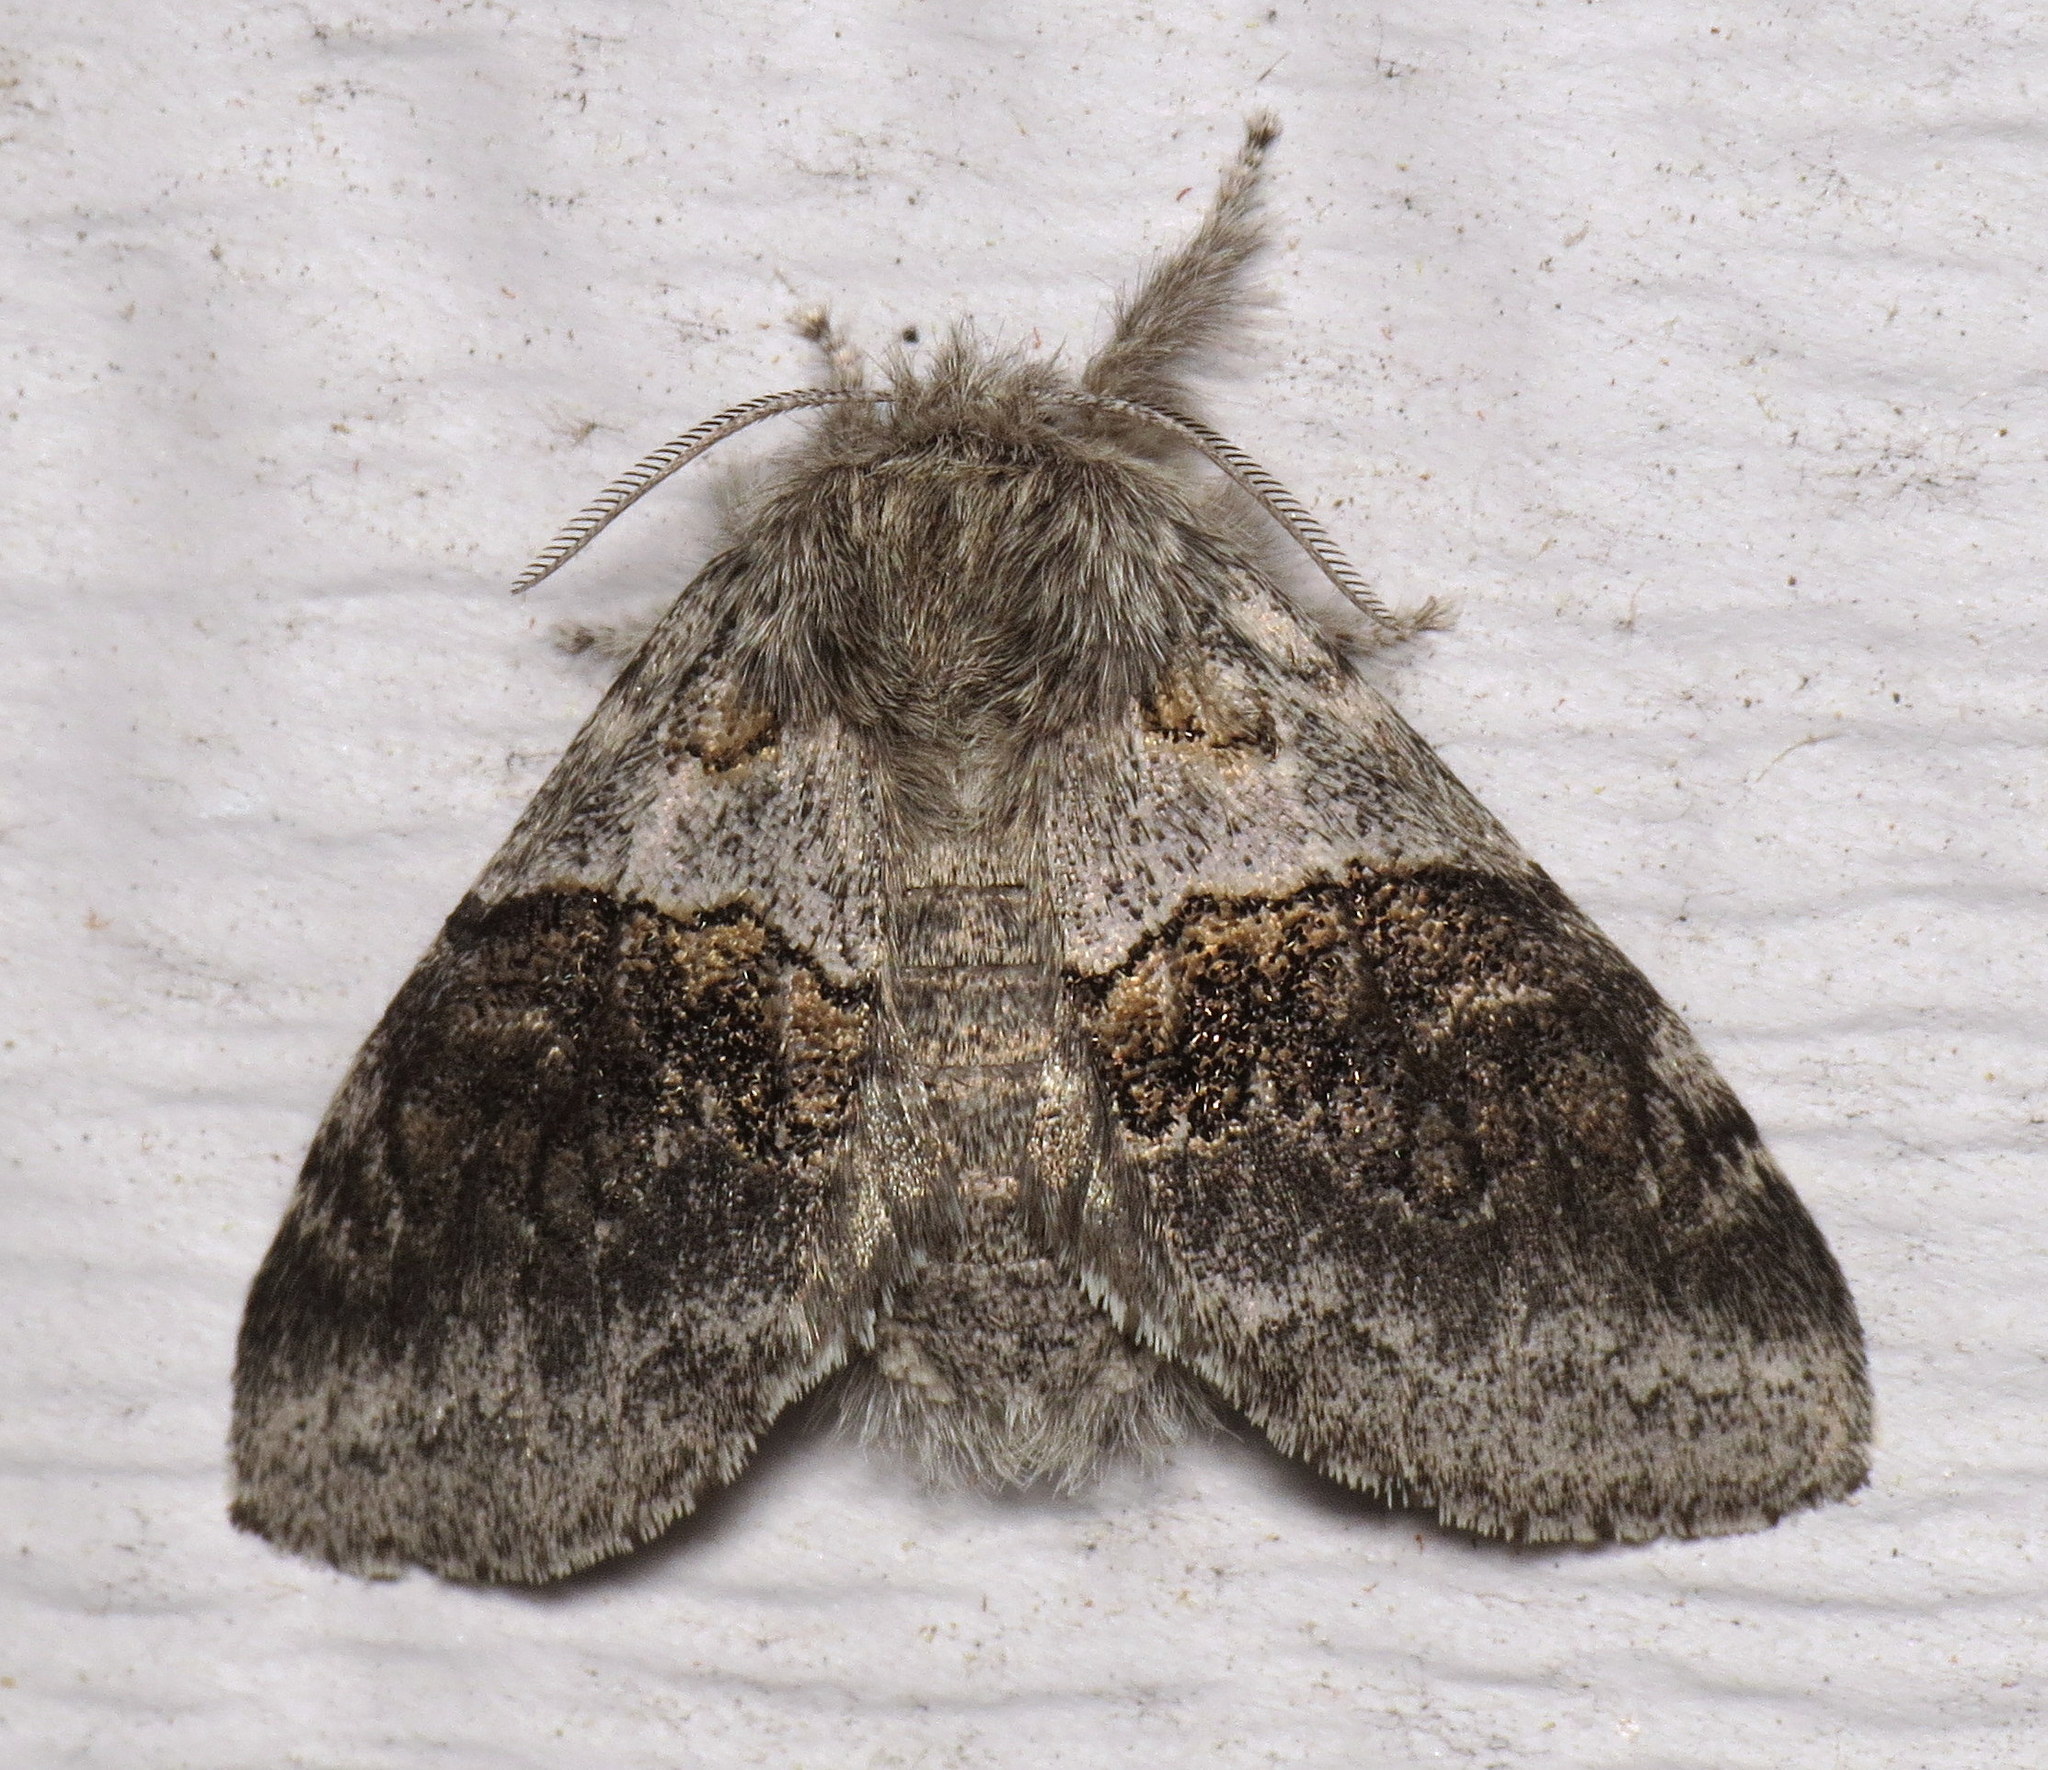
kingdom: Animalia
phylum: Arthropoda
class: Insecta
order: Lepidoptera
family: Notodontidae
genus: Gluphisia
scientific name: Gluphisia septentrionis
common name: Common gluphisia
